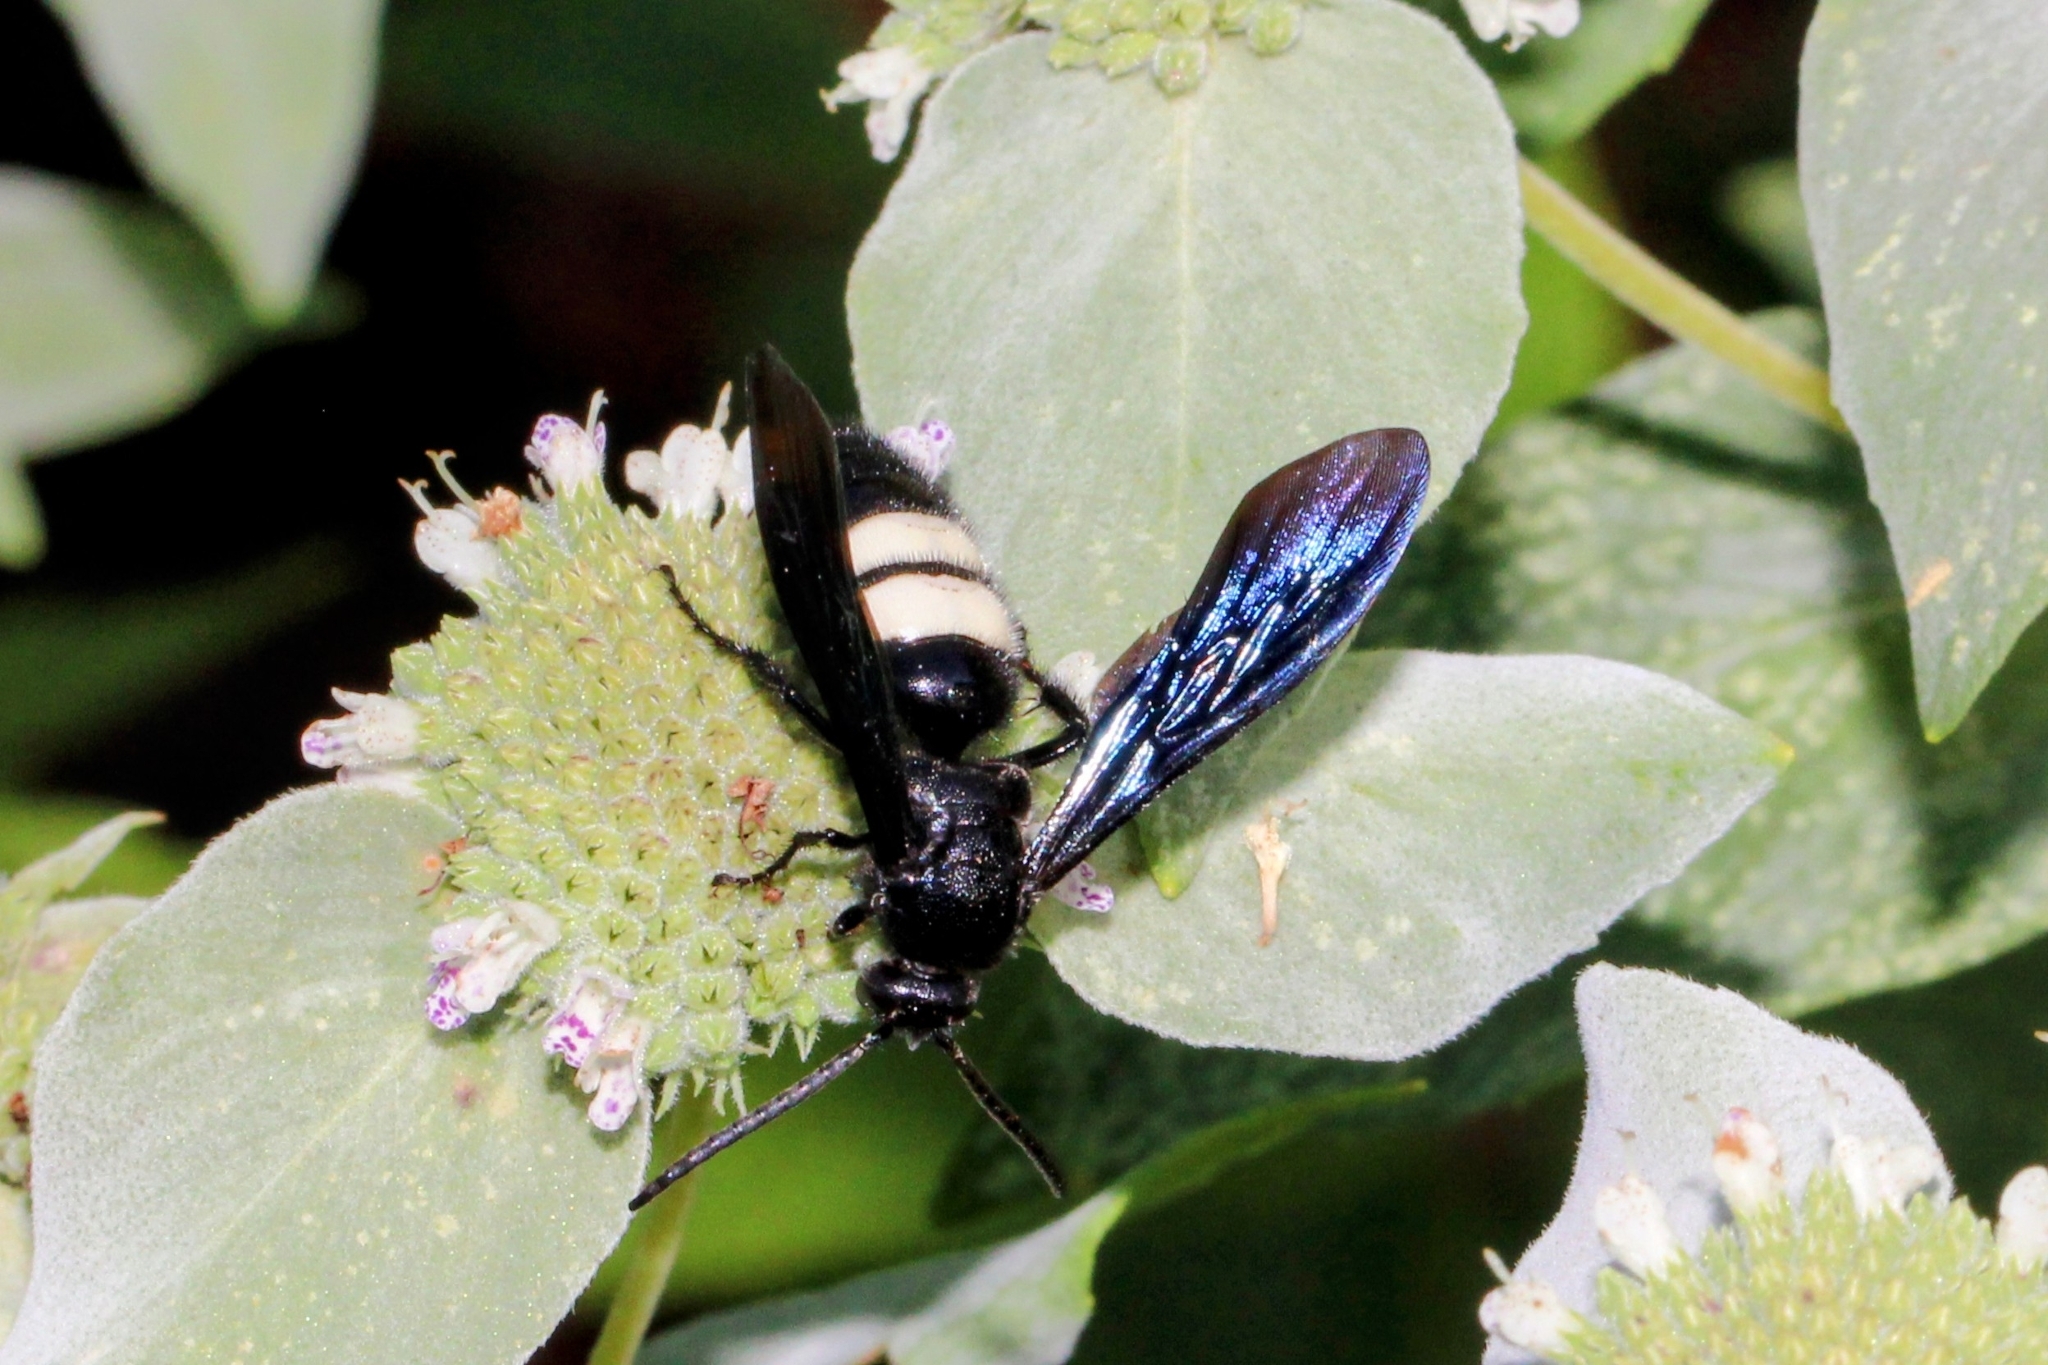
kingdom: Animalia
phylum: Arthropoda
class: Insecta
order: Hymenoptera
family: Scoliidae
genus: Scolia
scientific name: Scolia bicincta
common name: Double-banded scoliid wasp
